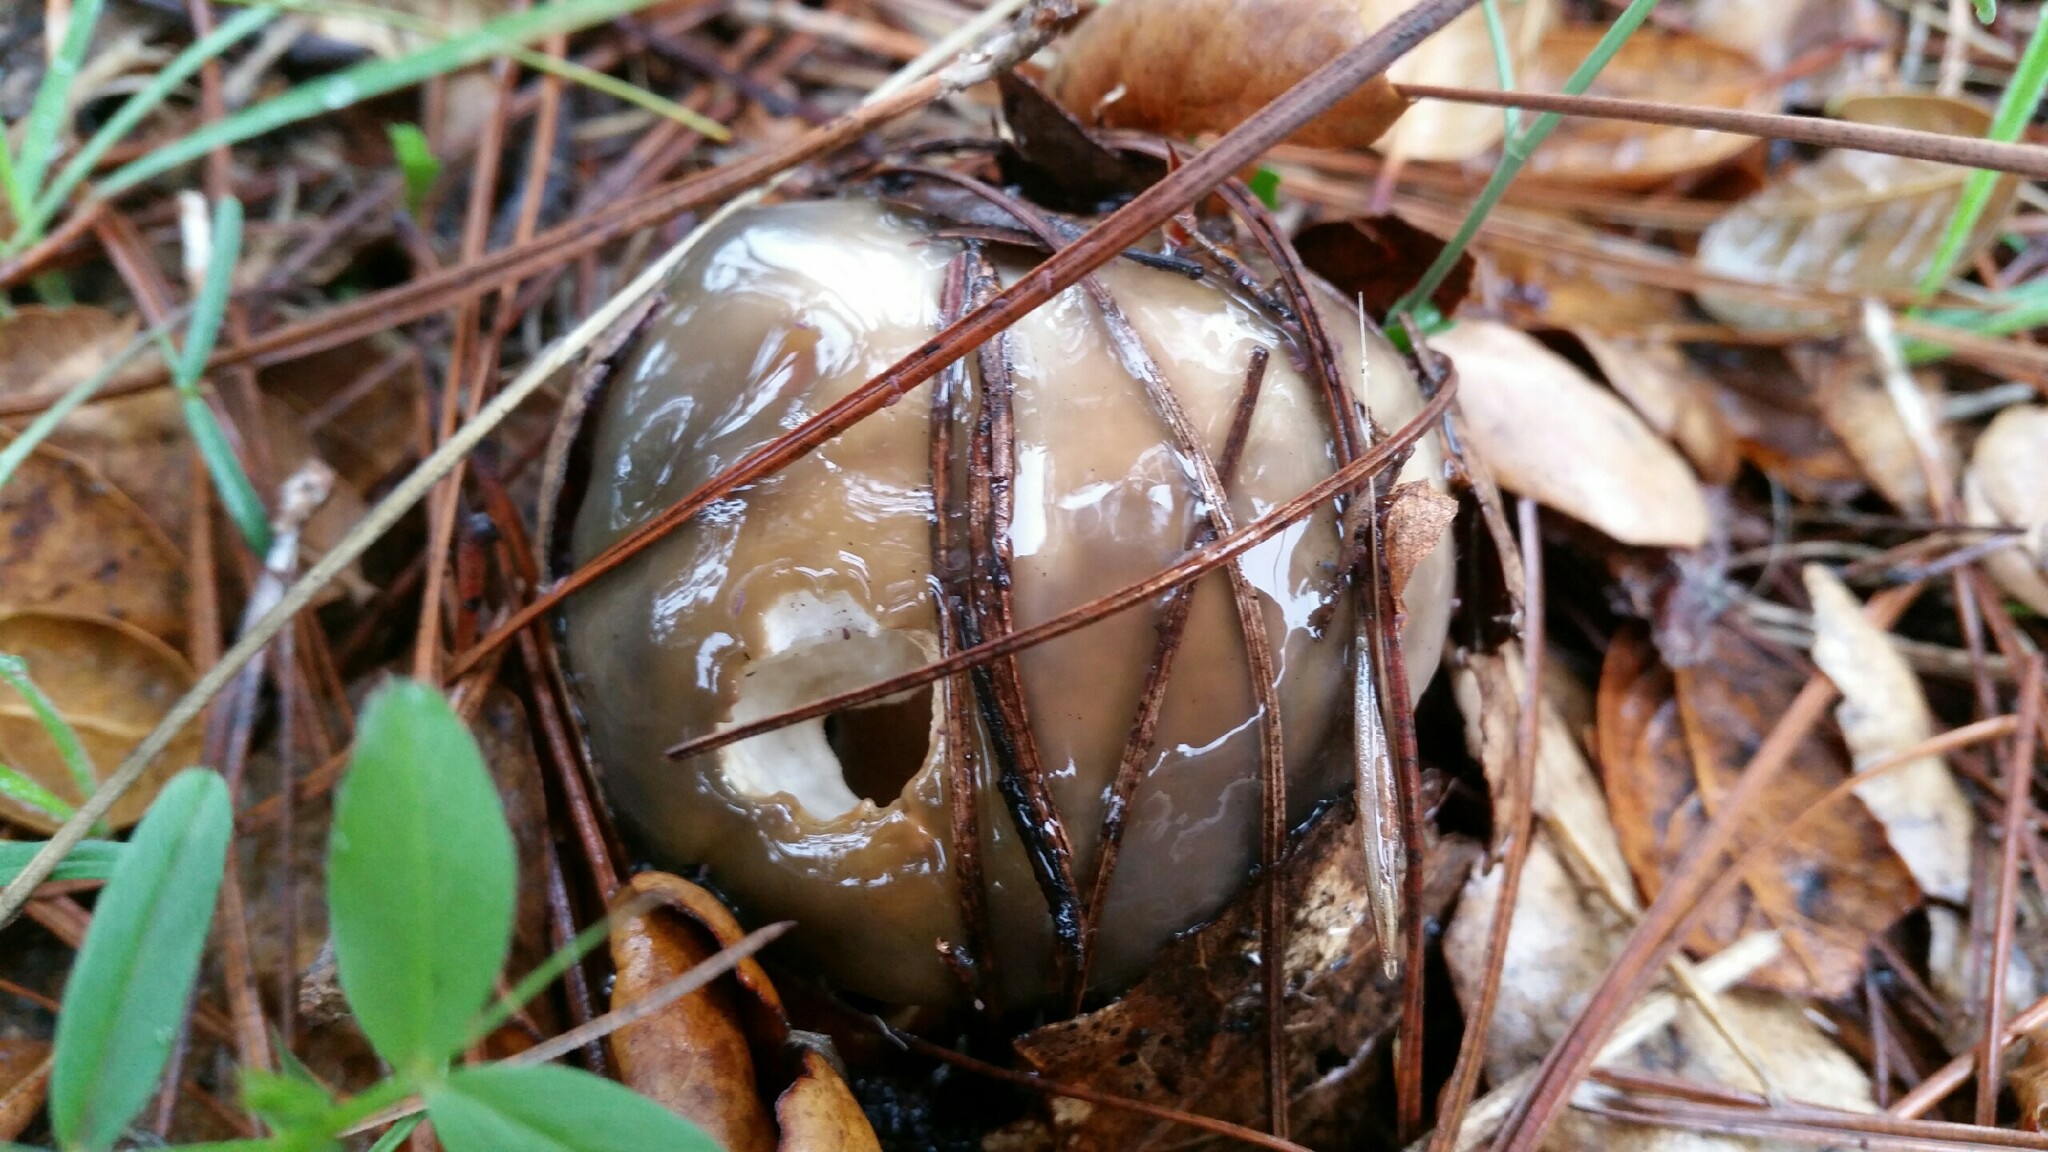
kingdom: Fungi
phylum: Basidiomycota
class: Agaricomycetes
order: Boletales
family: Suillaceae
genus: Suillus
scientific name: Suillus pungens
